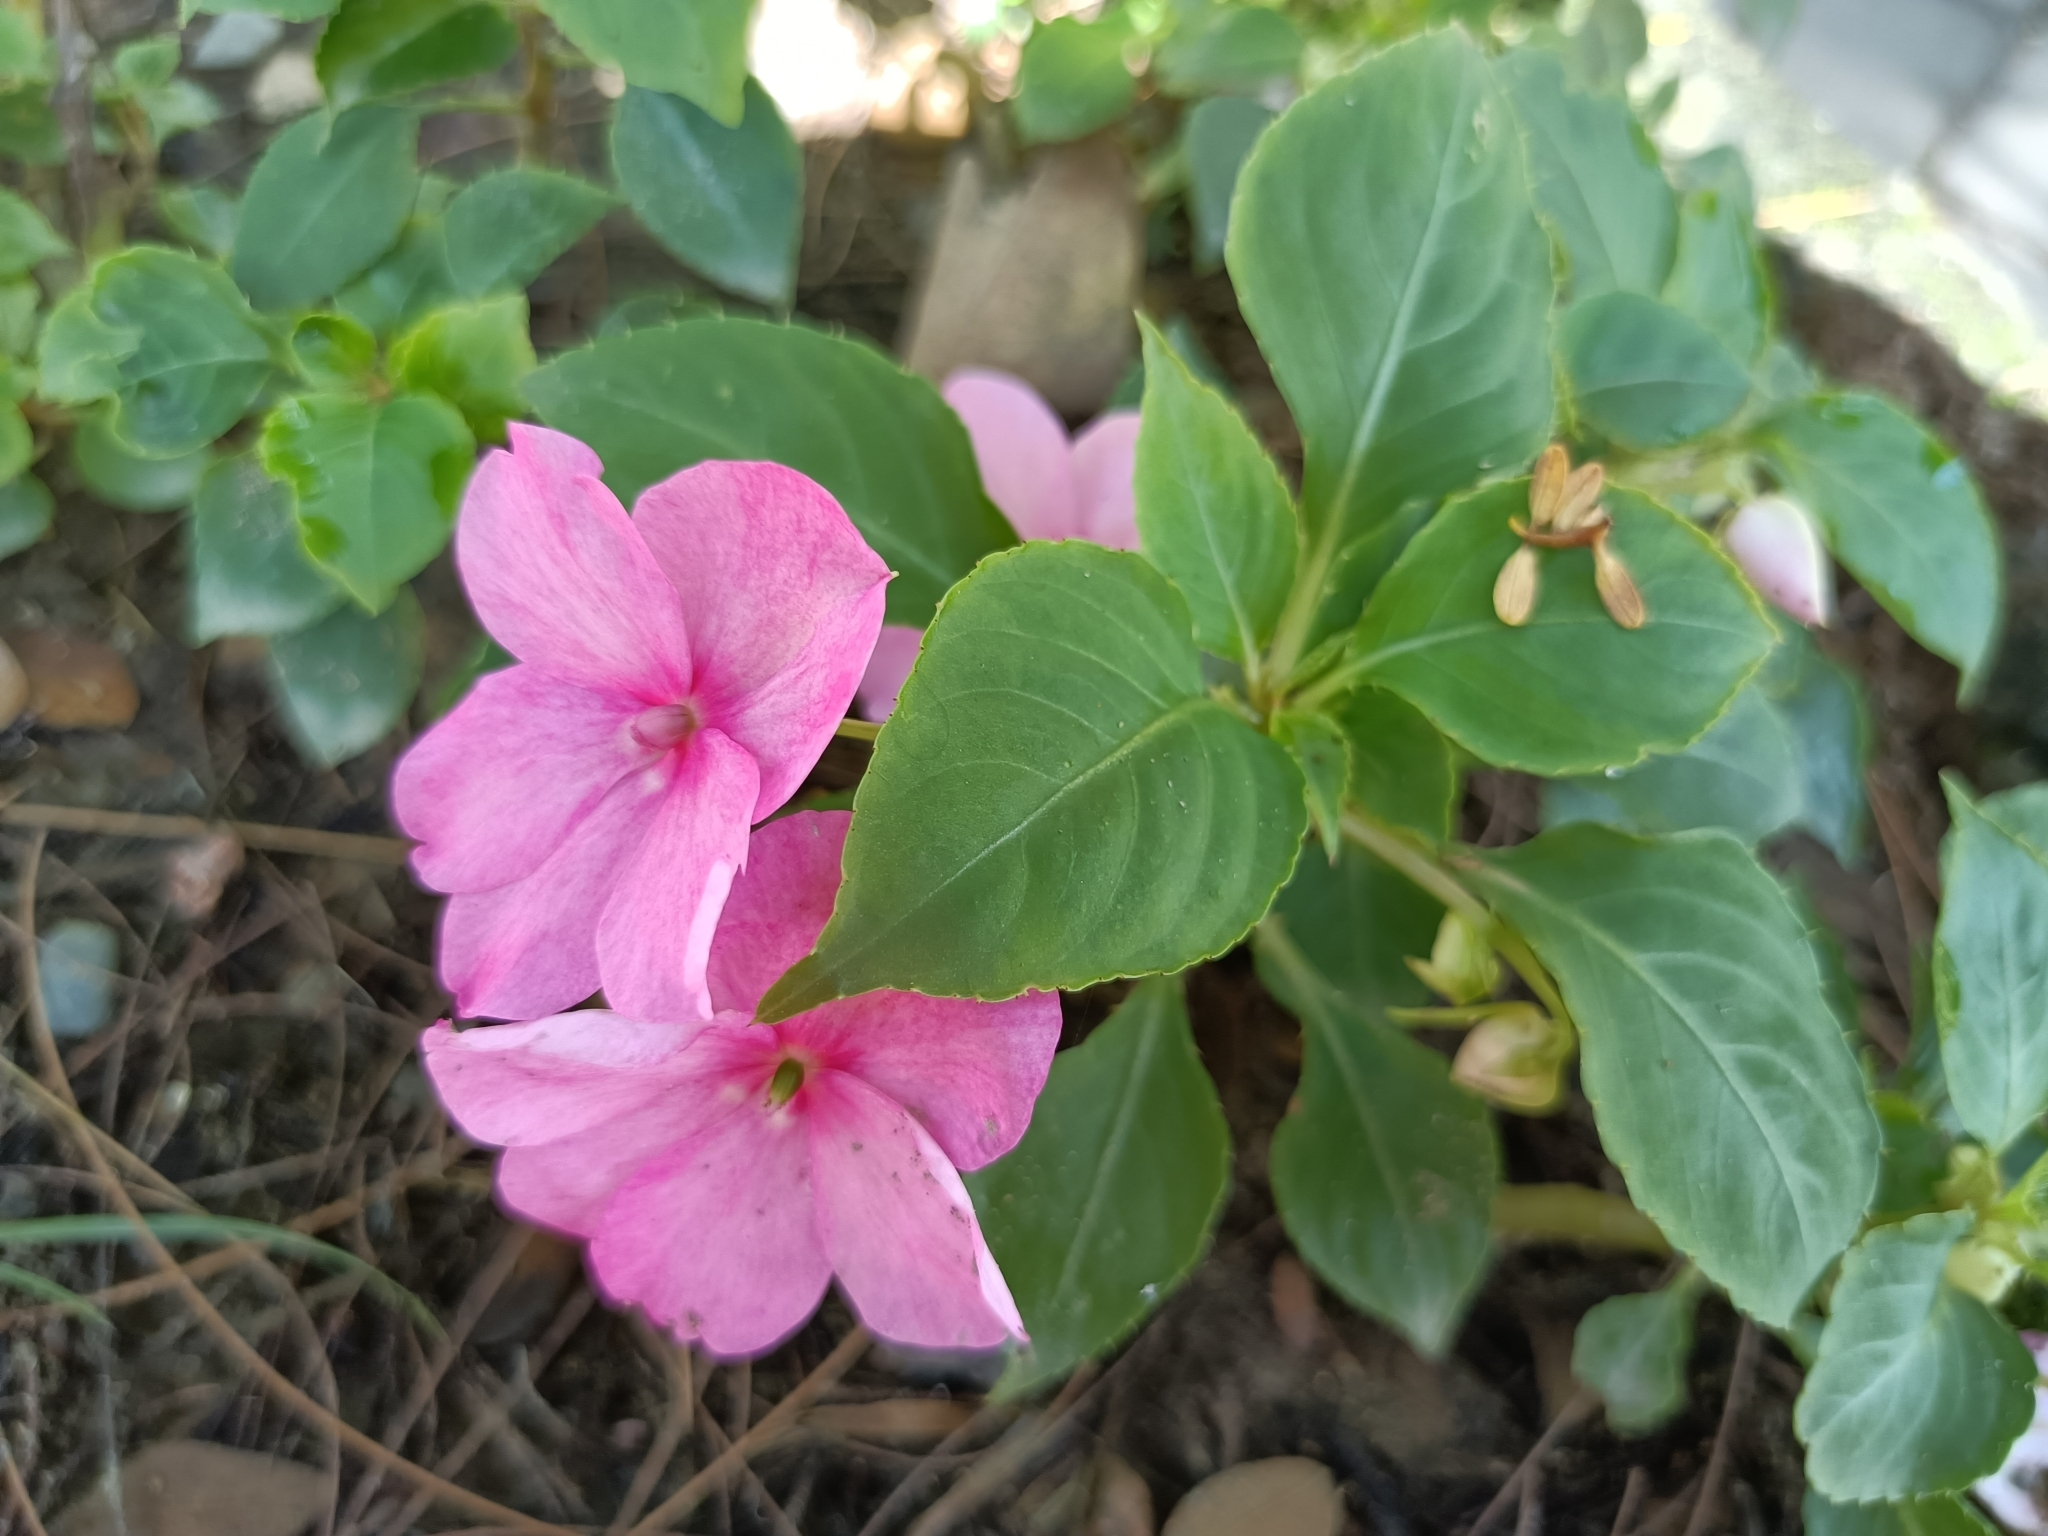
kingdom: Plantae
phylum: Tracheophyta
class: Magnoliopsida
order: Ericales
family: Balsaminaceae
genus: Impatiens
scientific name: Impatiens walleriana
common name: Buzzy lizzy
